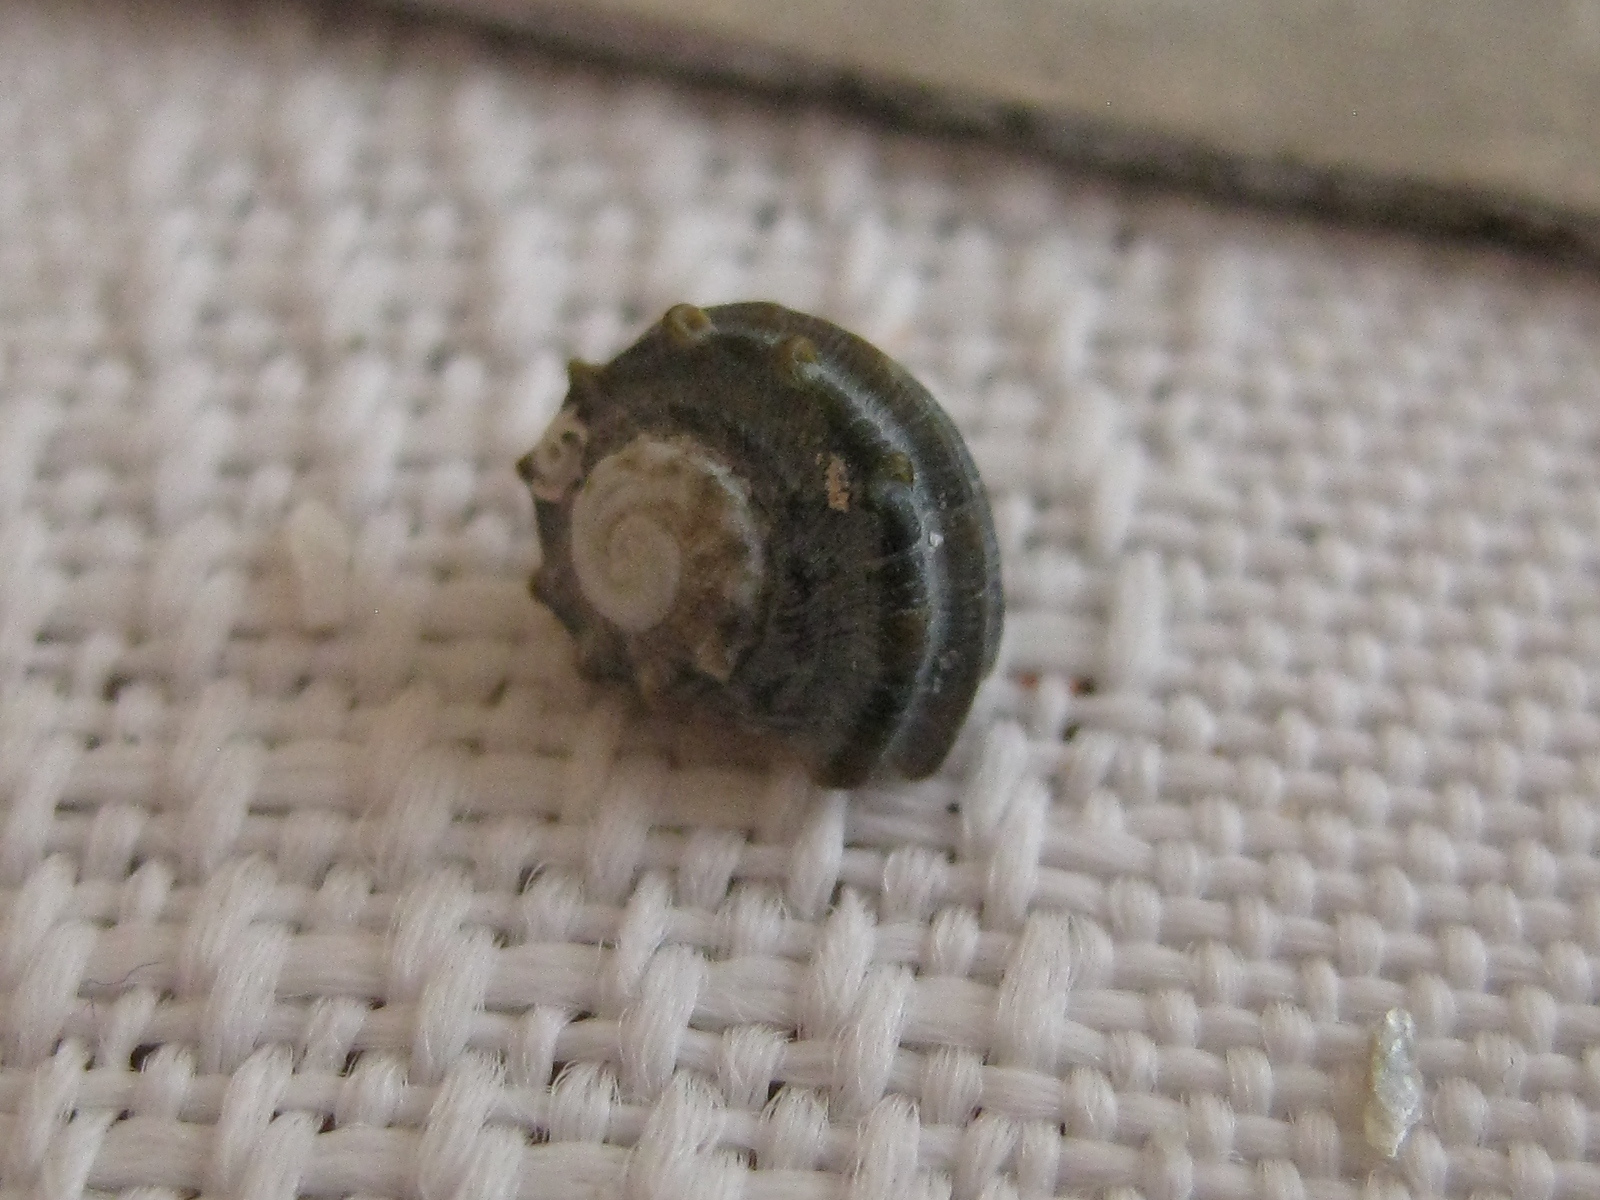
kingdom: Animalia
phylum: Mollusca
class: Gastropoda
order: Trochida
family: Turbinidae
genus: Lunella
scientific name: Lunella smaragda
